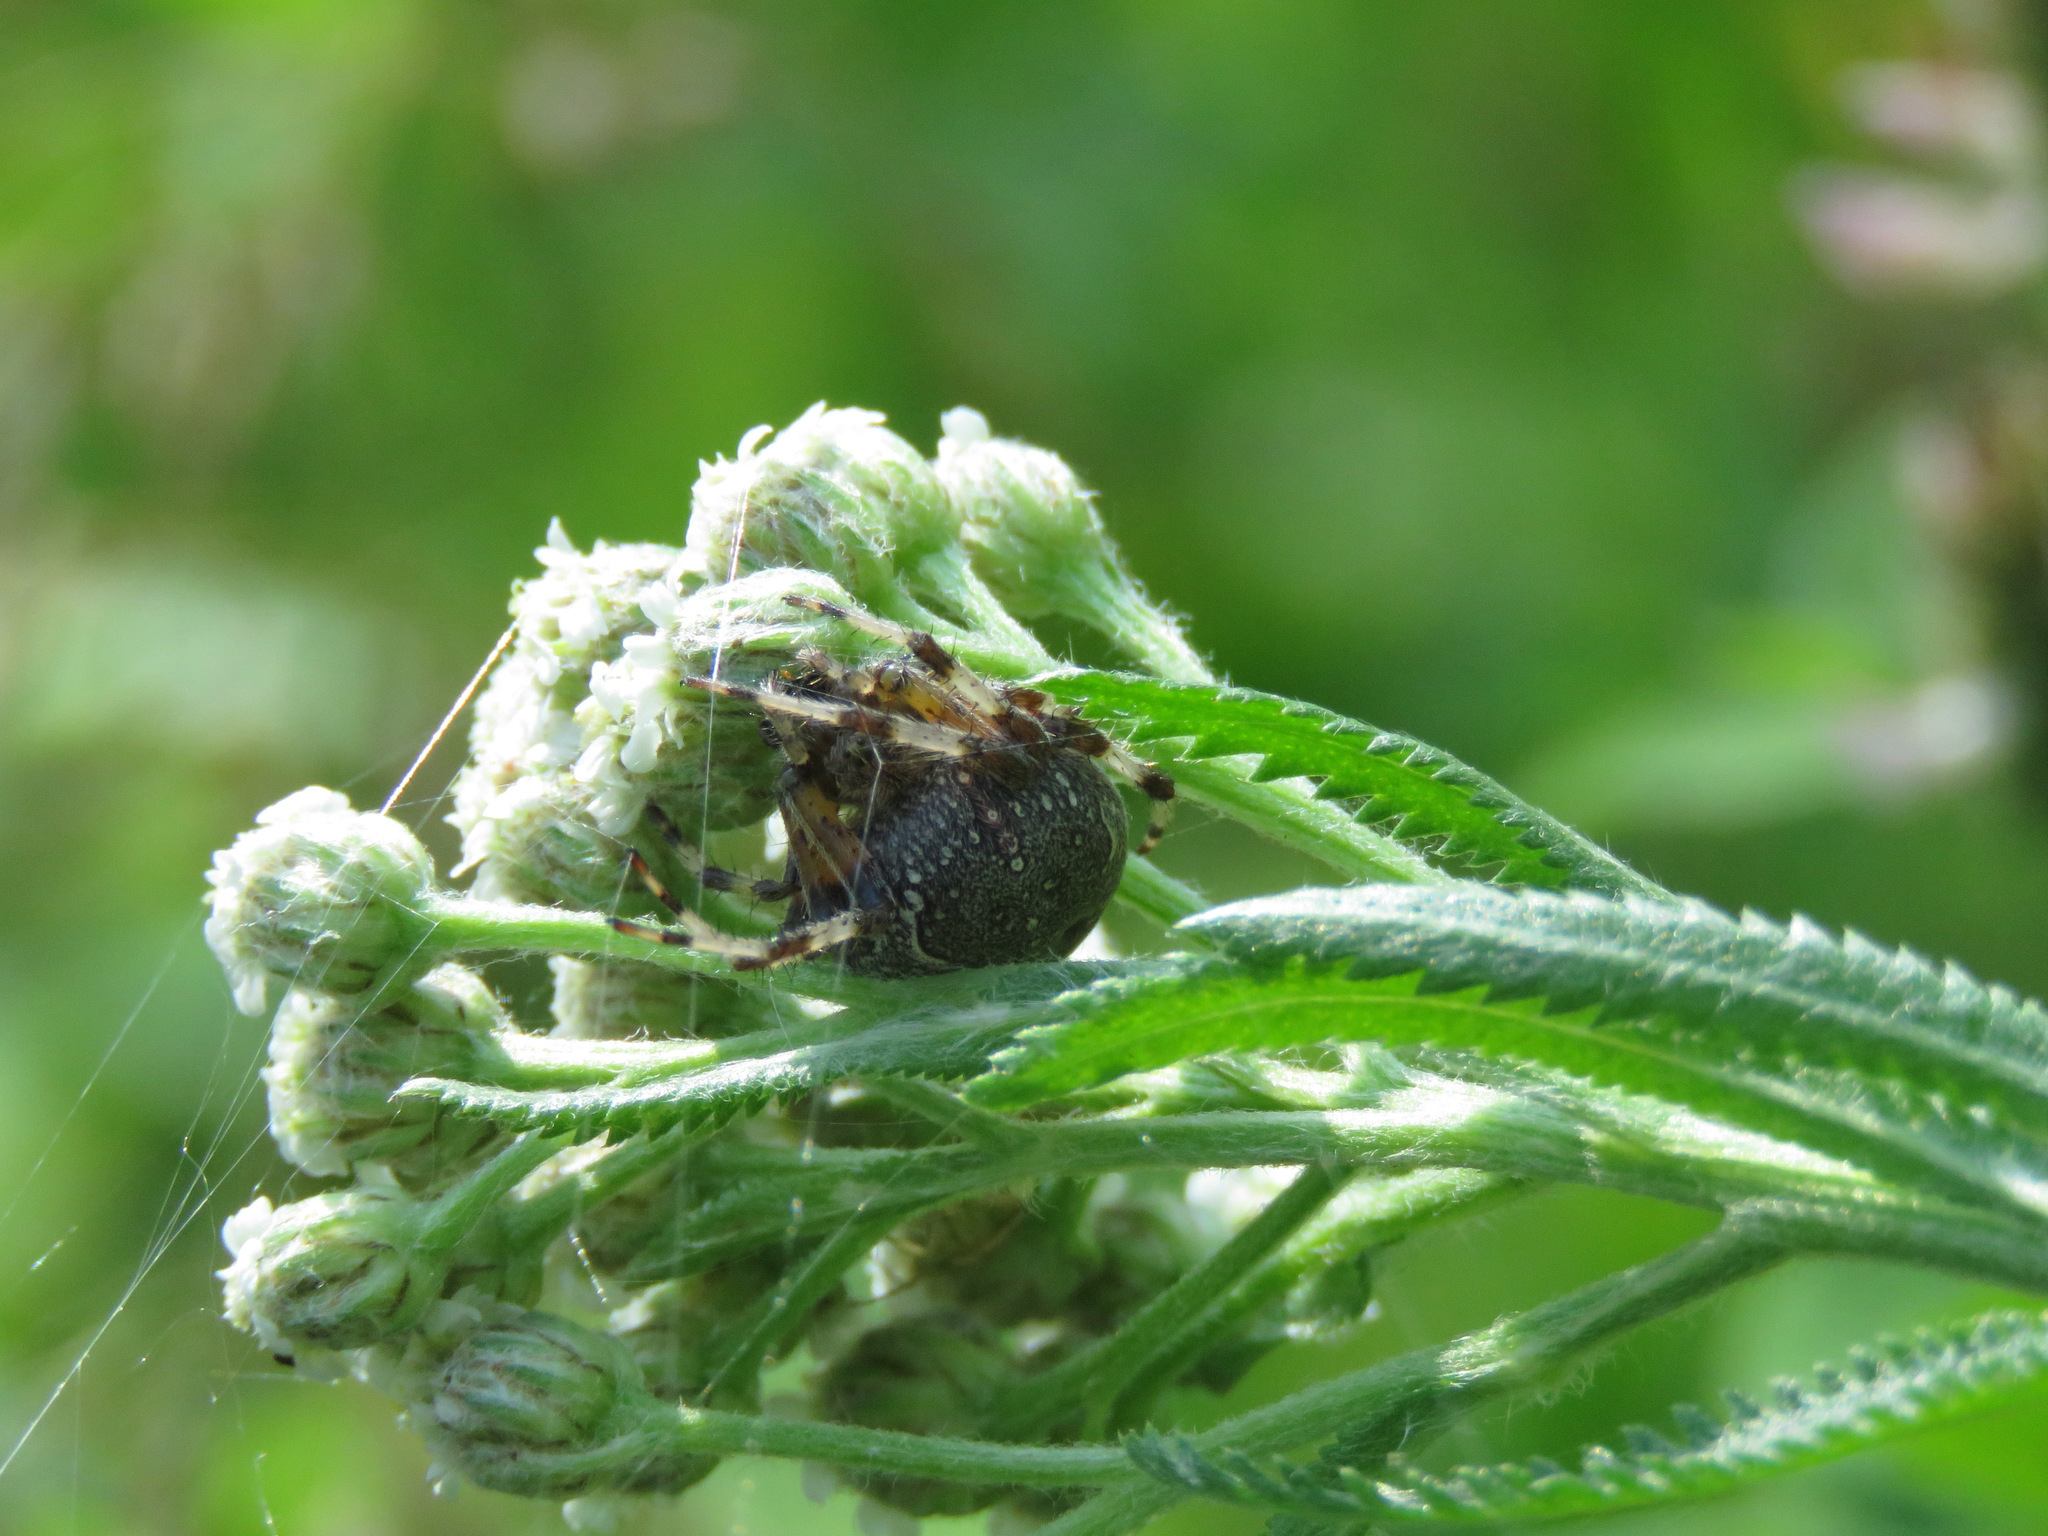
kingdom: Animalia
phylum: Arthropoda
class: Arachnida
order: Araneae
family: Araneidae
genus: Araneus
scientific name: Araneus marmoreus
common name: Marbled orbweaver
